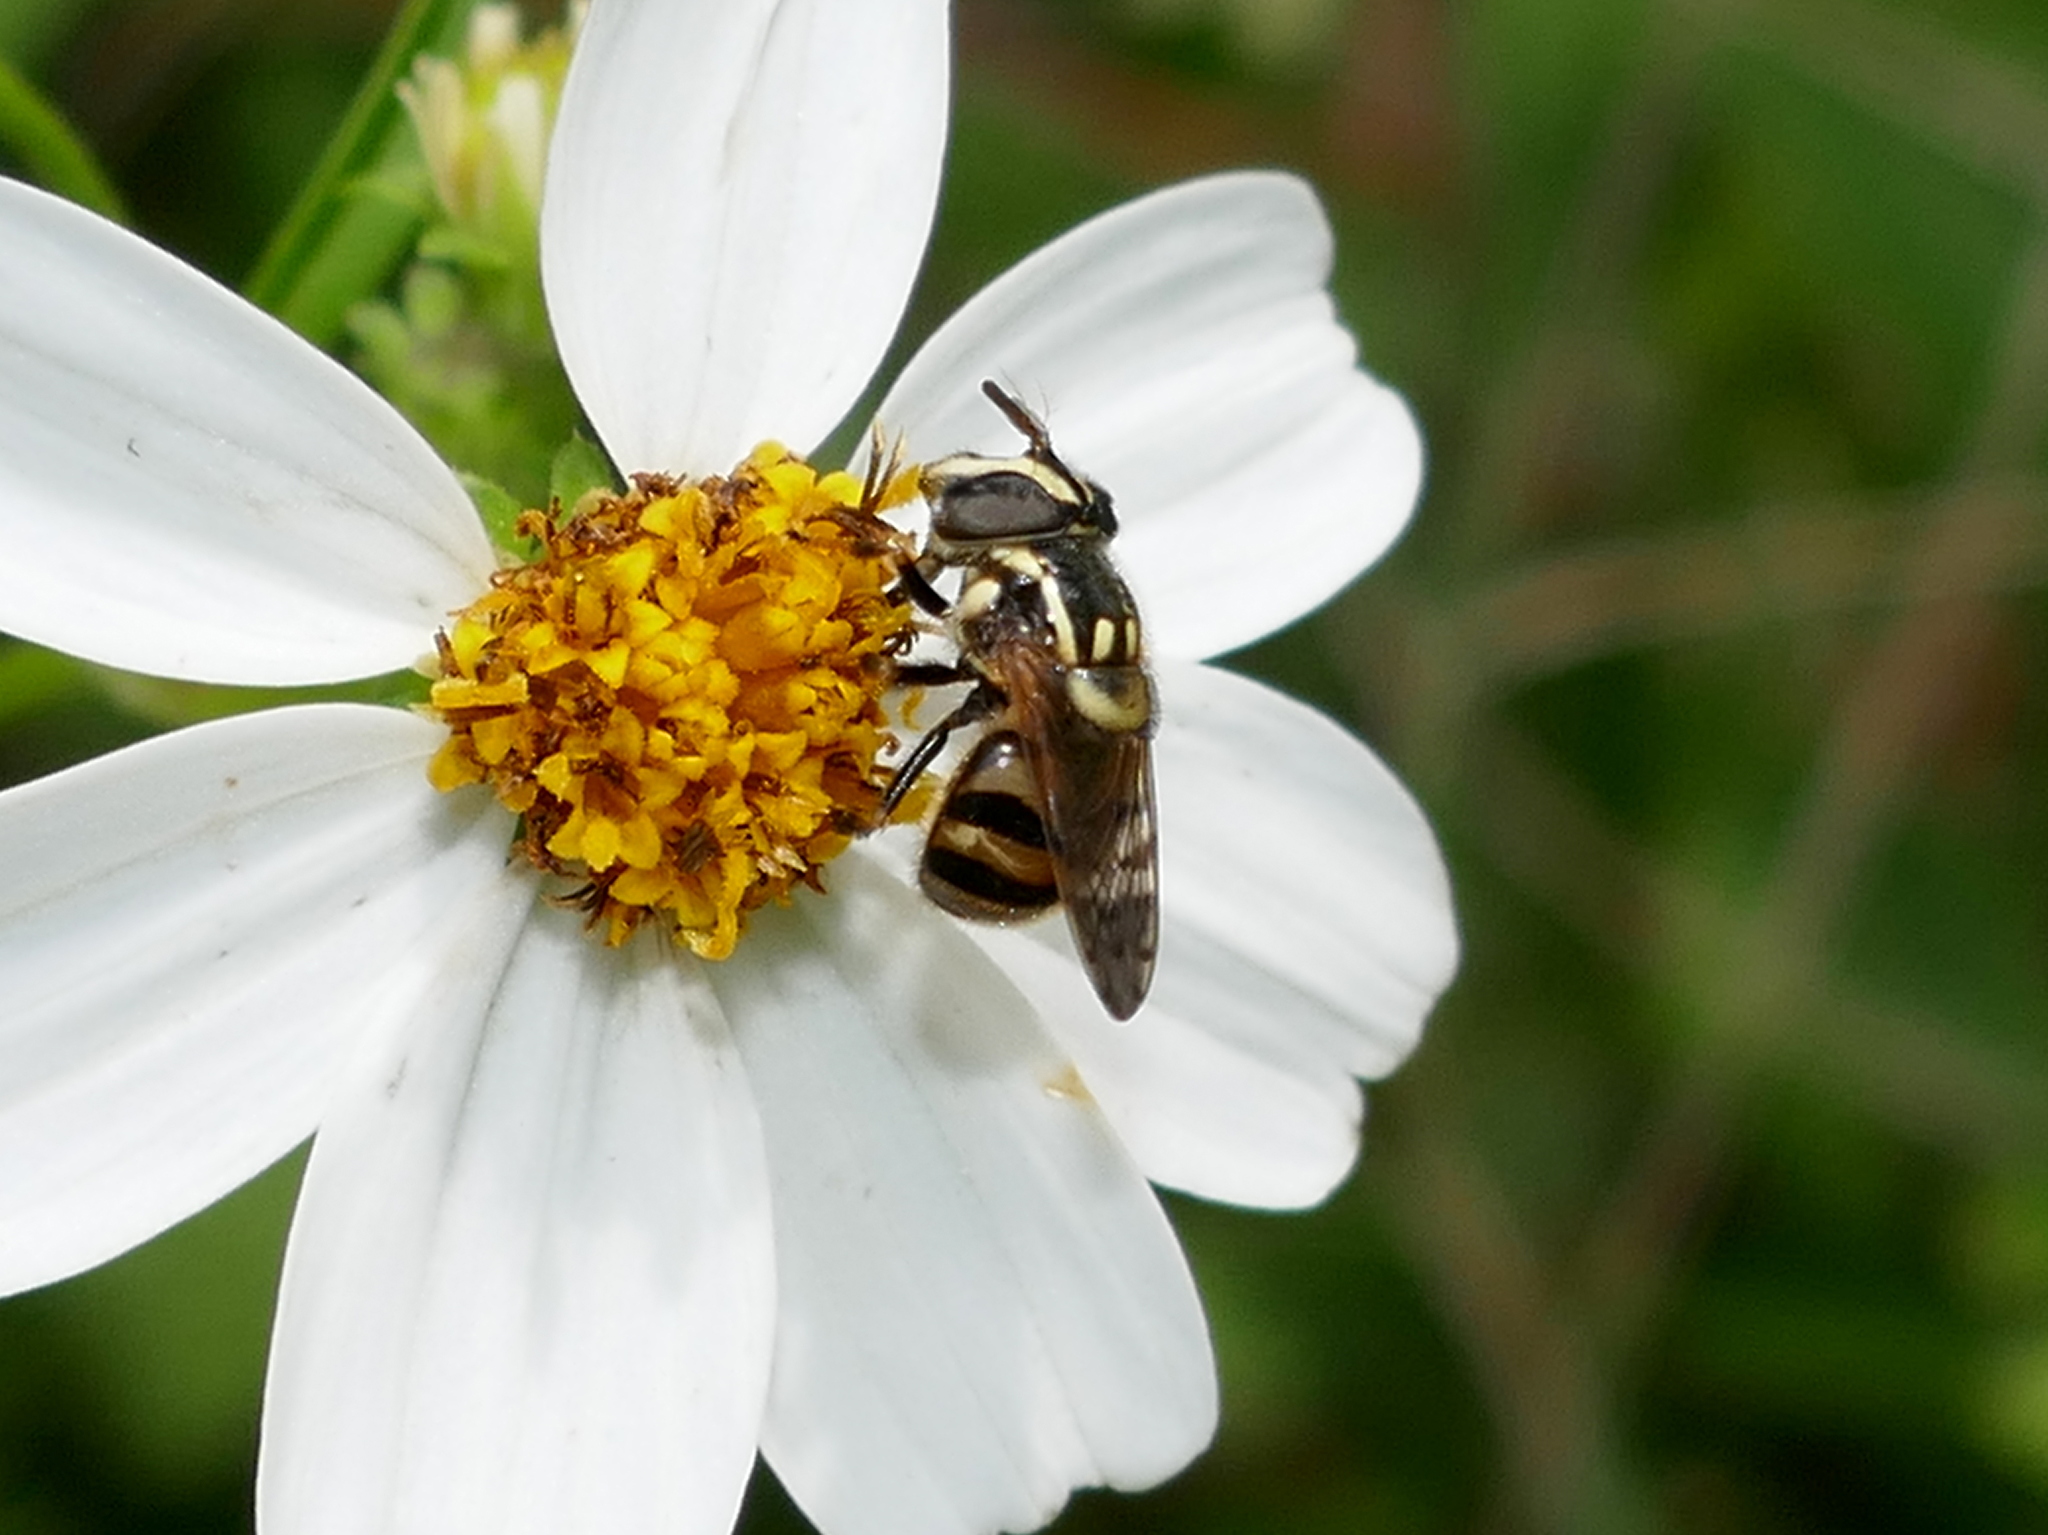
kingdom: Animalia
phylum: Arthropoda
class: Insecta
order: Diptera
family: Syrphidae
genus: Copestylum
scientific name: Copestylum vittatum
